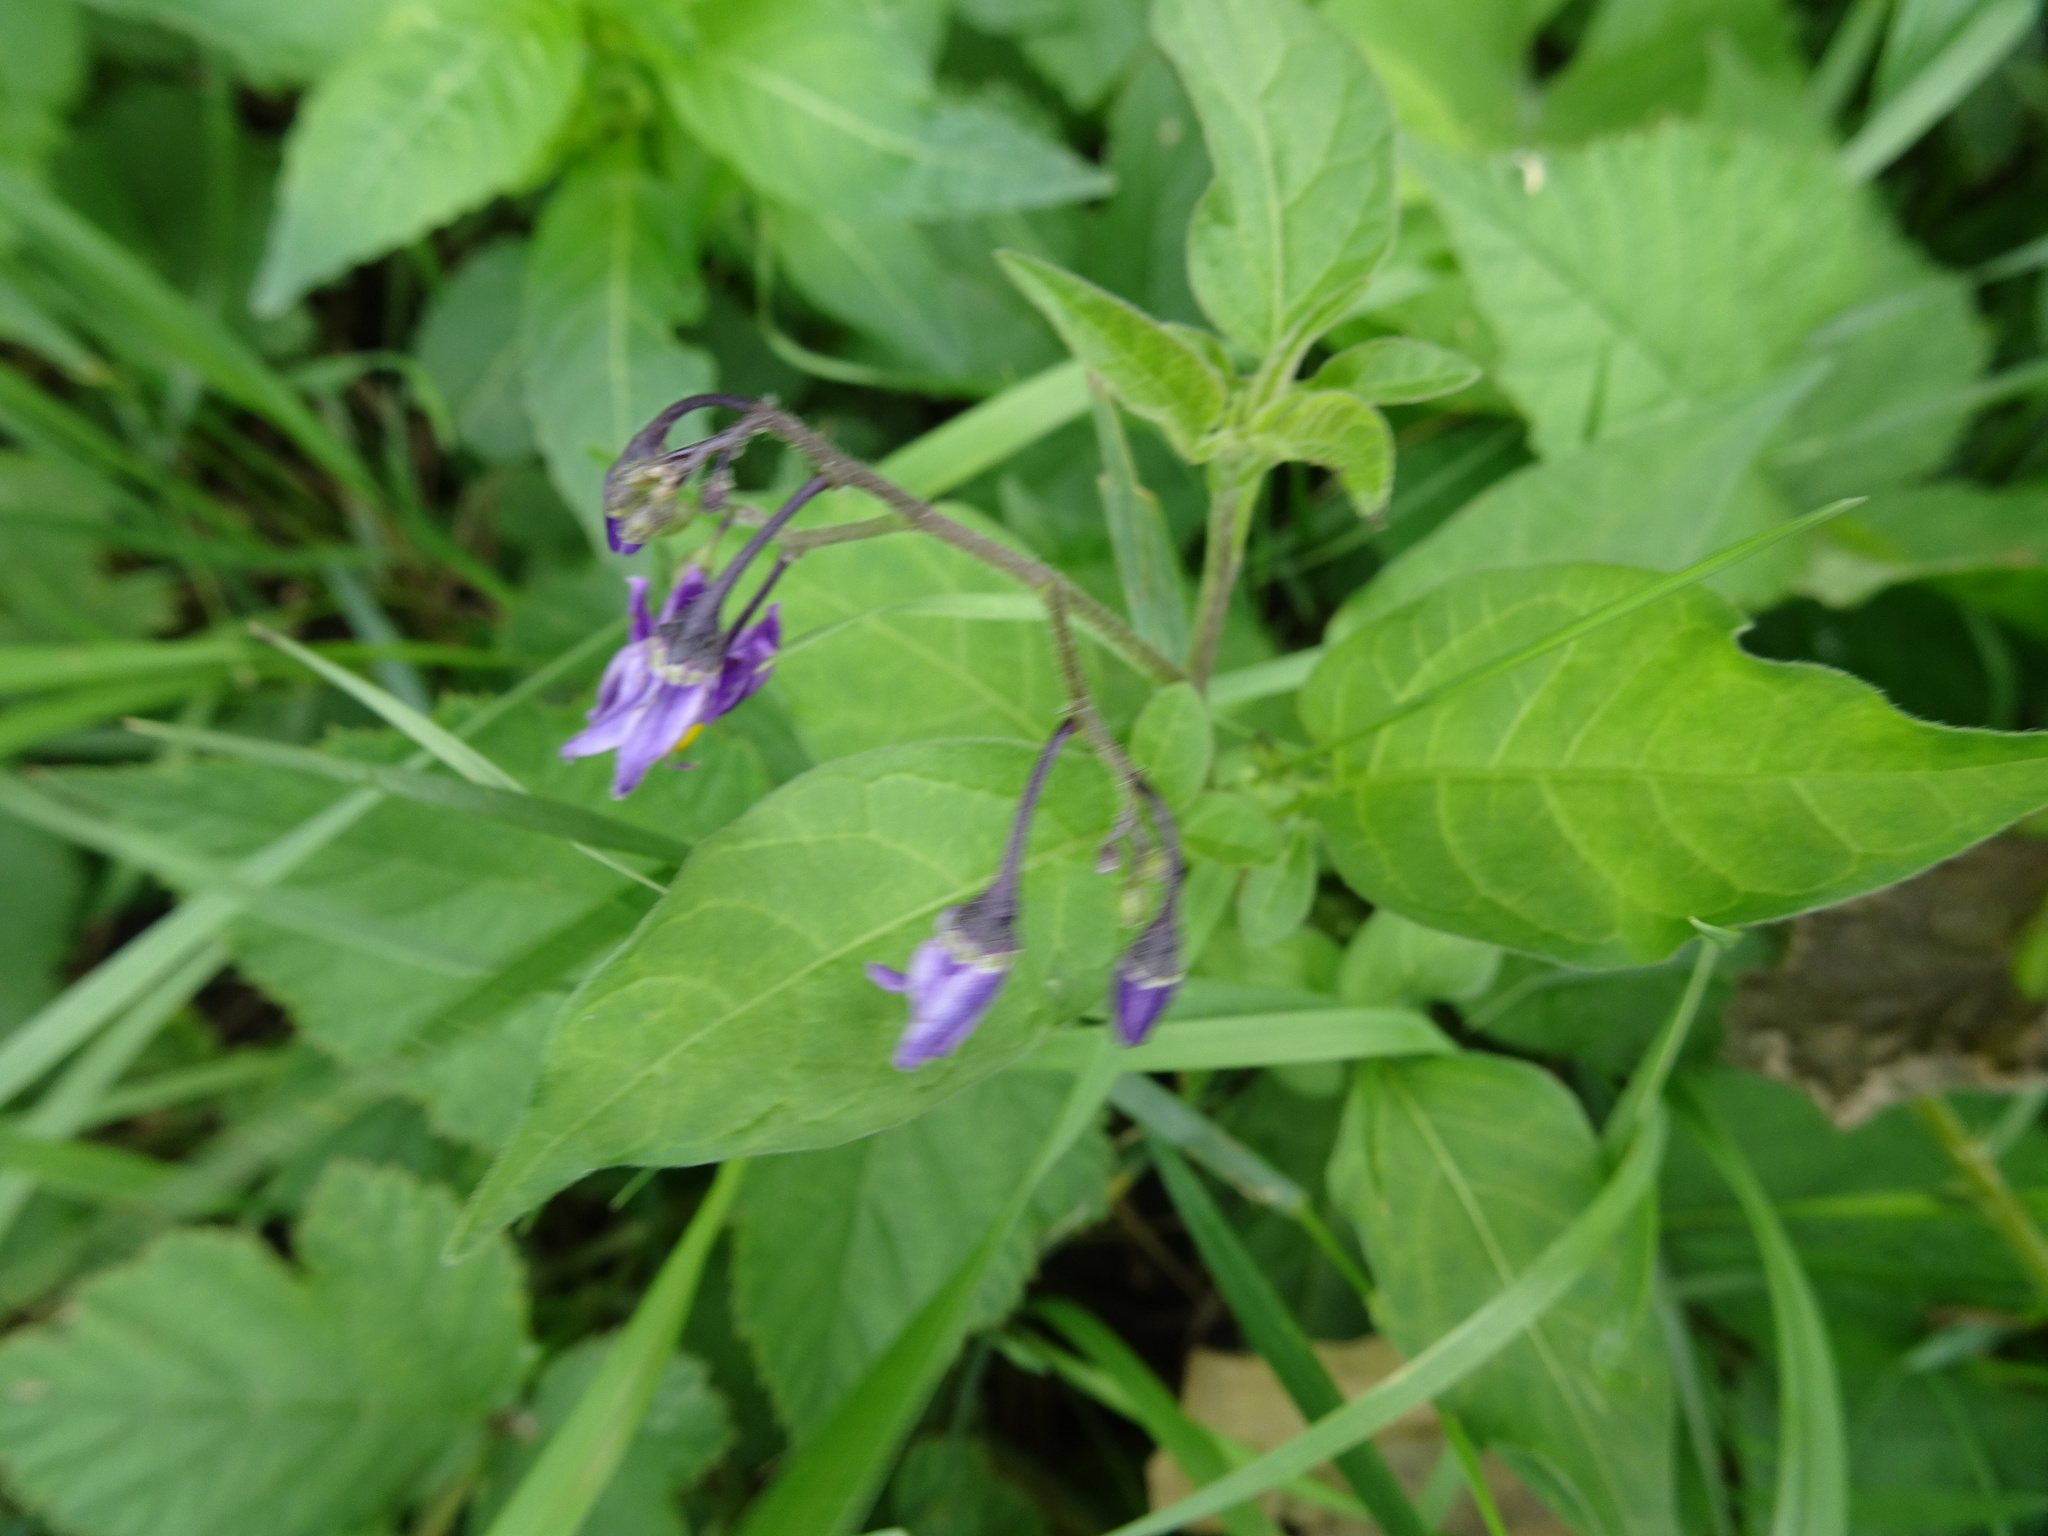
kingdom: Plantae
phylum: Tracheophyta
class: Magnoliopsida
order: Solanales
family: Solanaceae
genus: Solanum
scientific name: Solanum dulcamara
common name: Climbing nightshade
